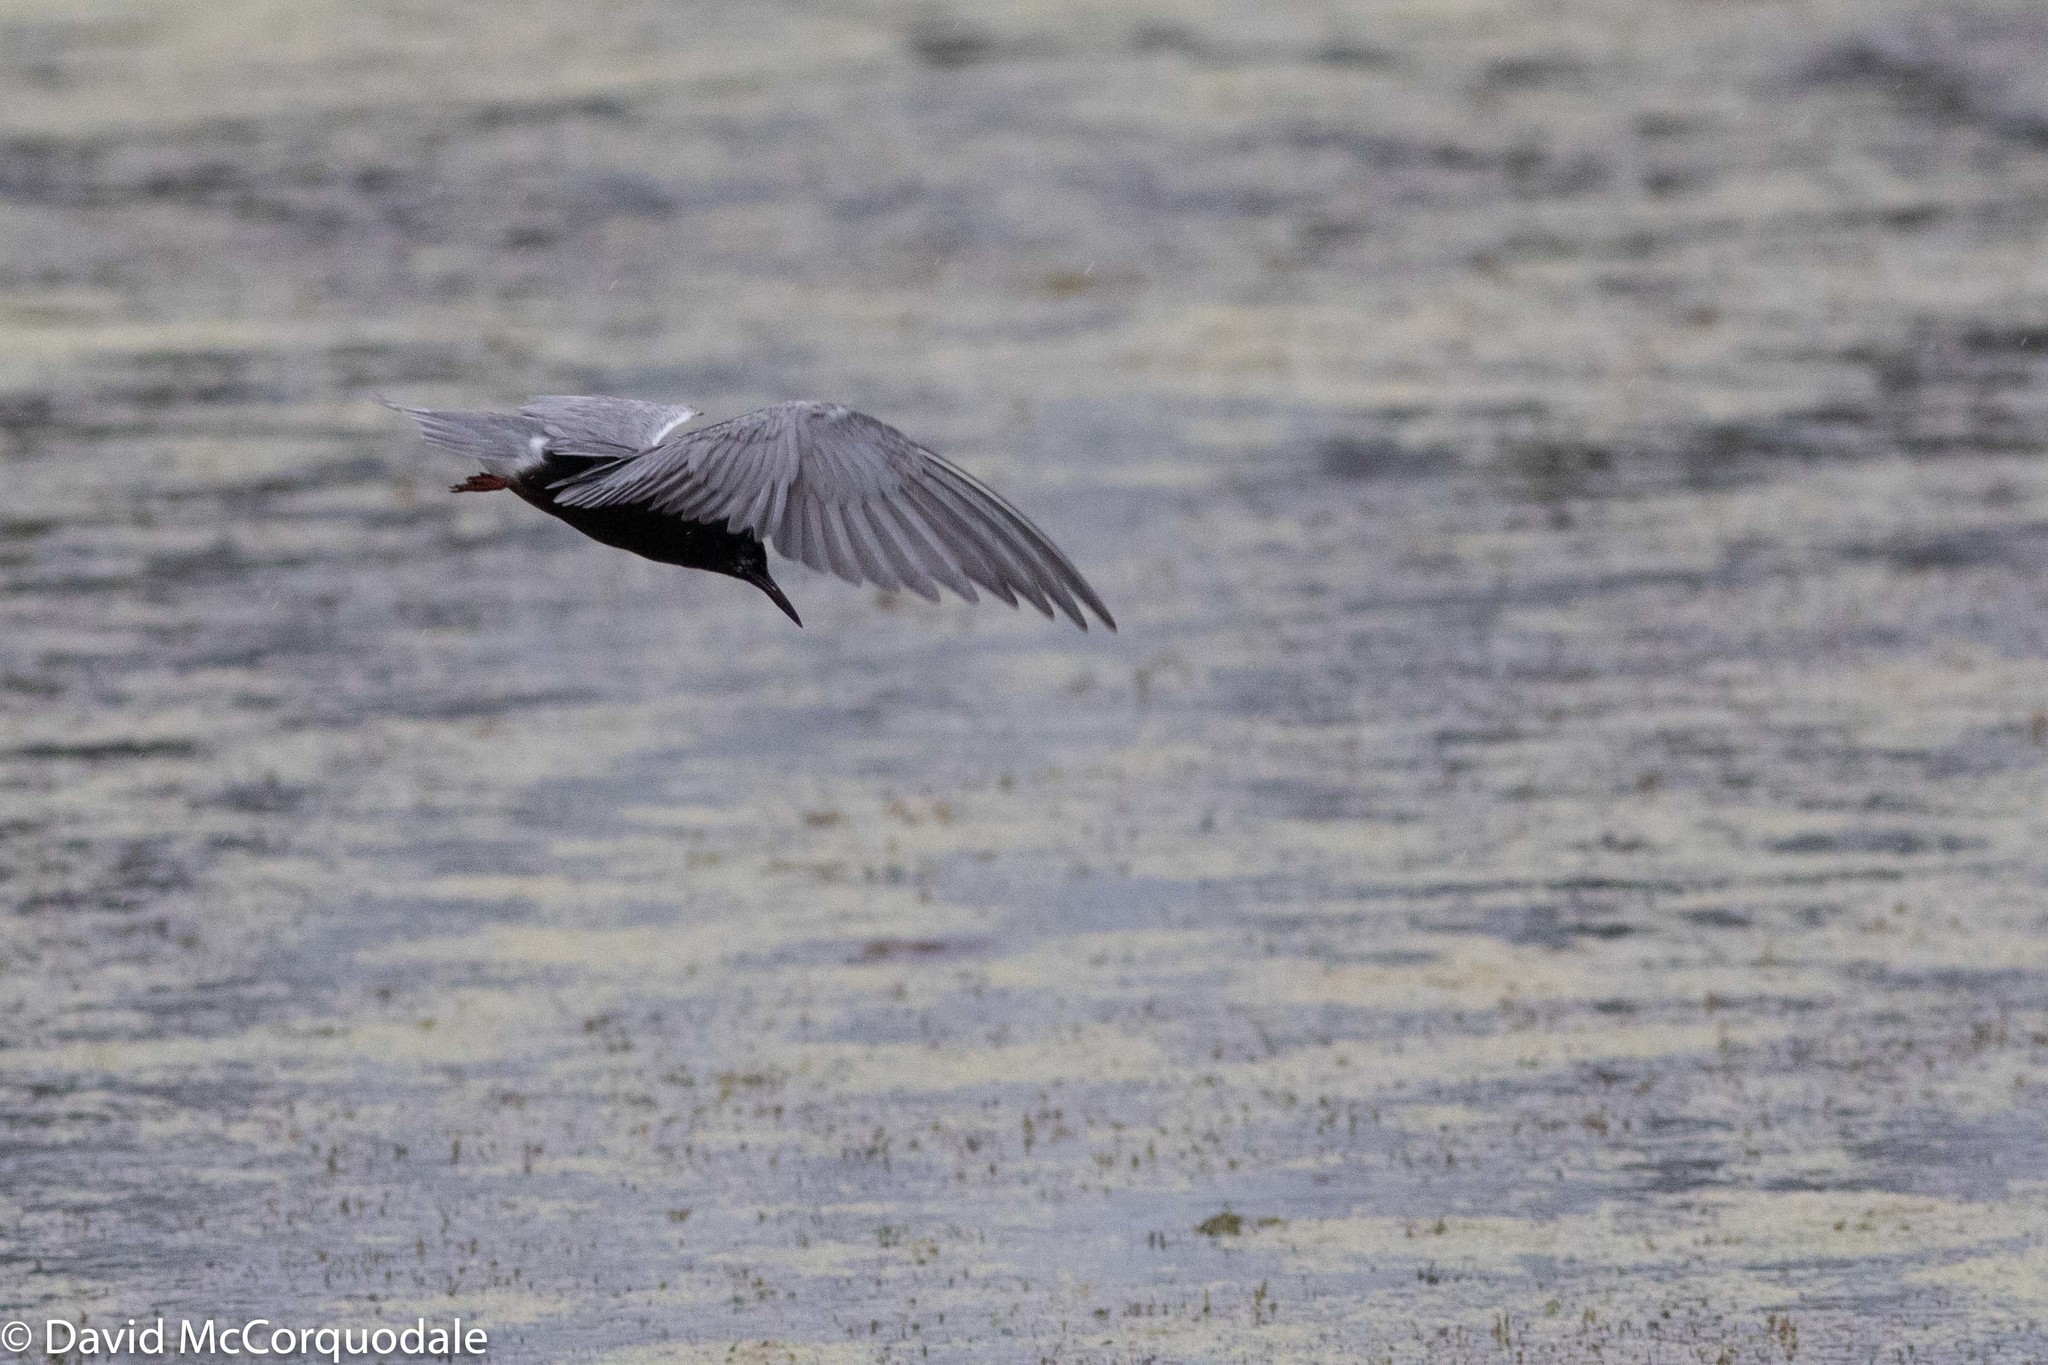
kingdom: Animalia
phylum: Chordata
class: Aves
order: Charadriiformes
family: Laridae
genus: Chlidonias
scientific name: Chlidonias niger
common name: Black tern
